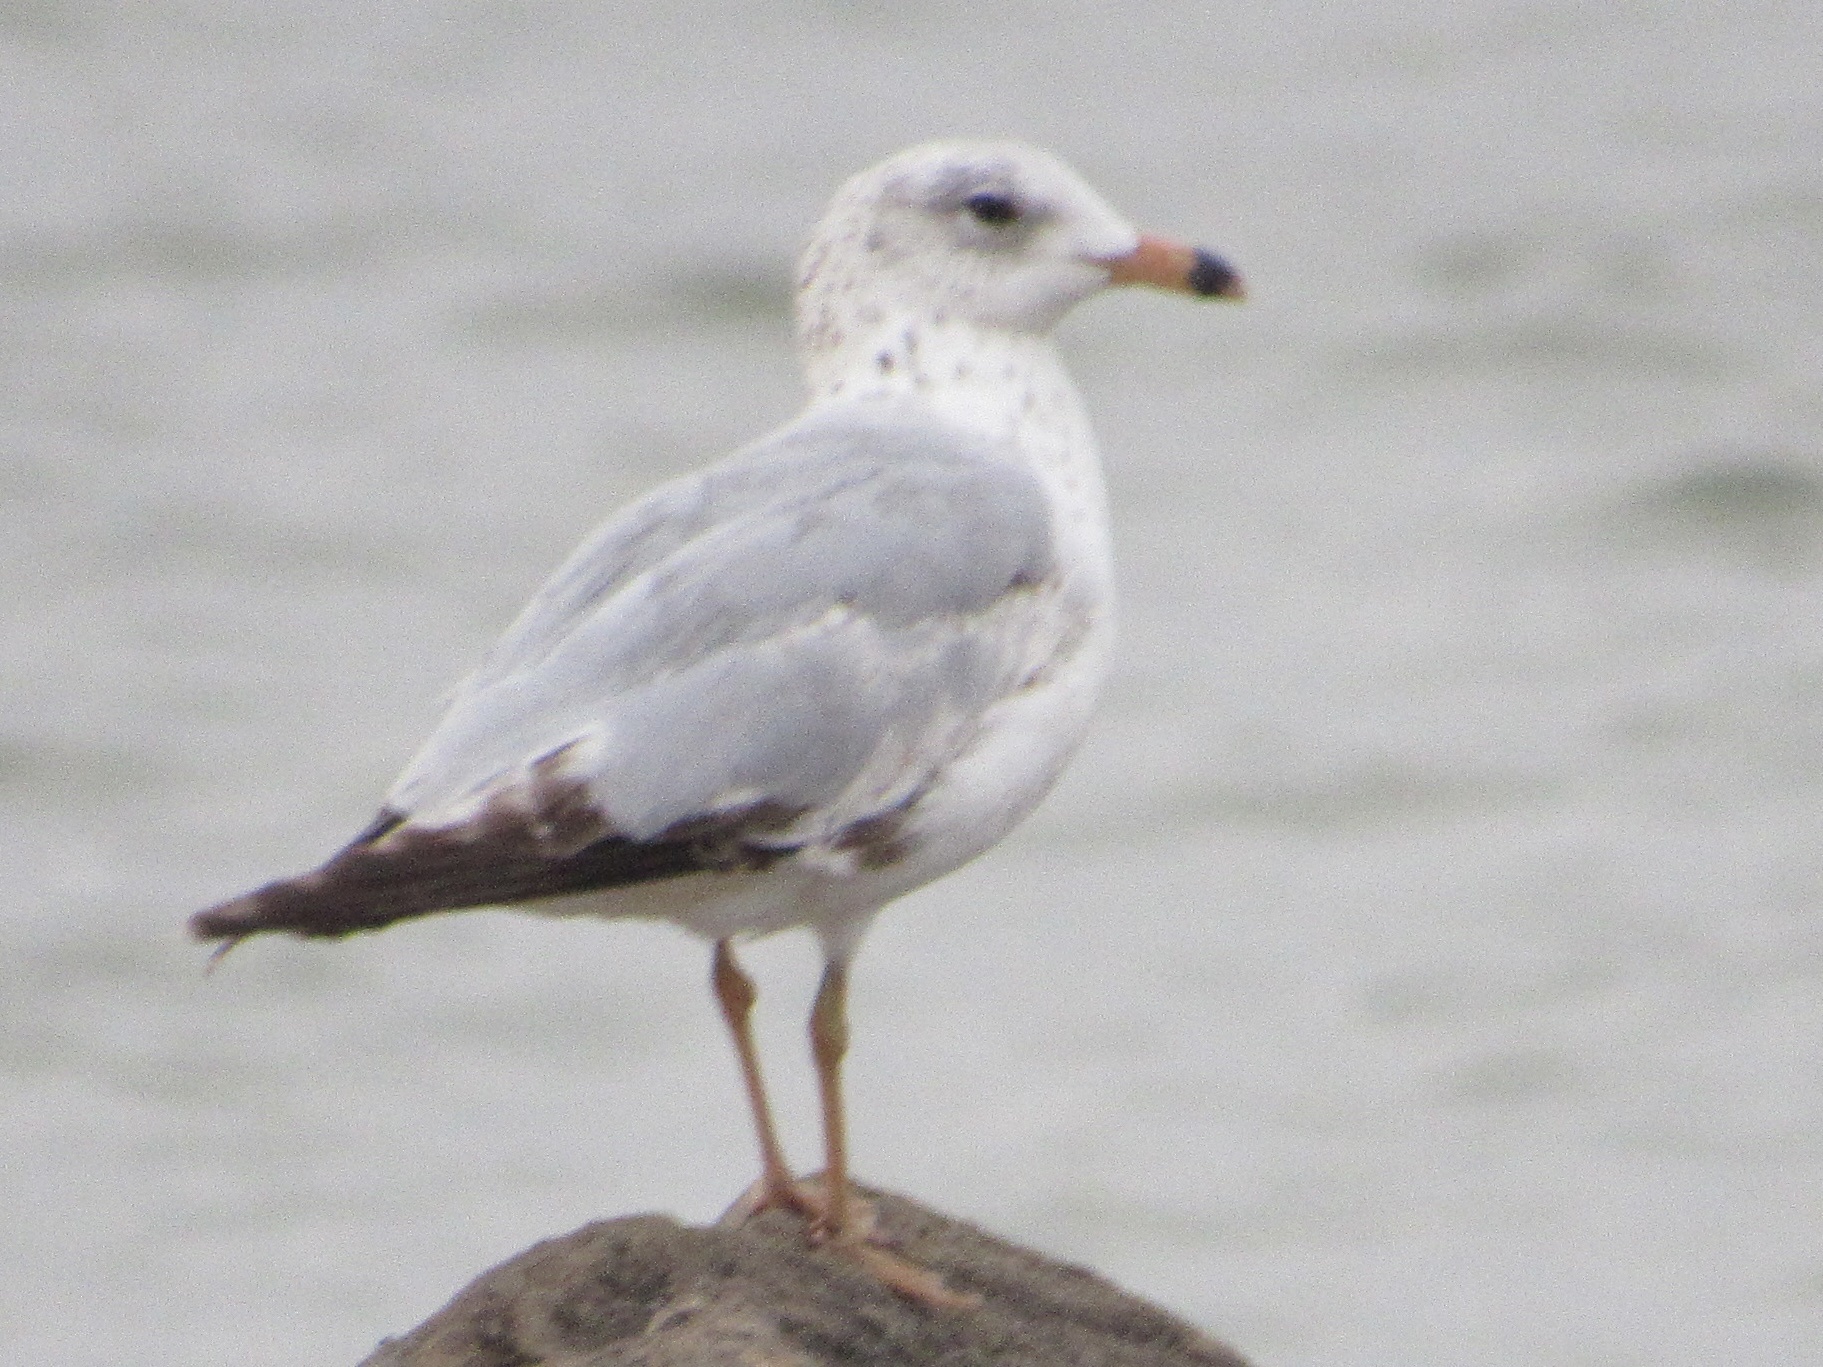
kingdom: Animalia
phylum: Chordata
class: Aves
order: Charadriiformes
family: Laridae
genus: Larus
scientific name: Larus delawarensis
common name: Ring-billed gull
